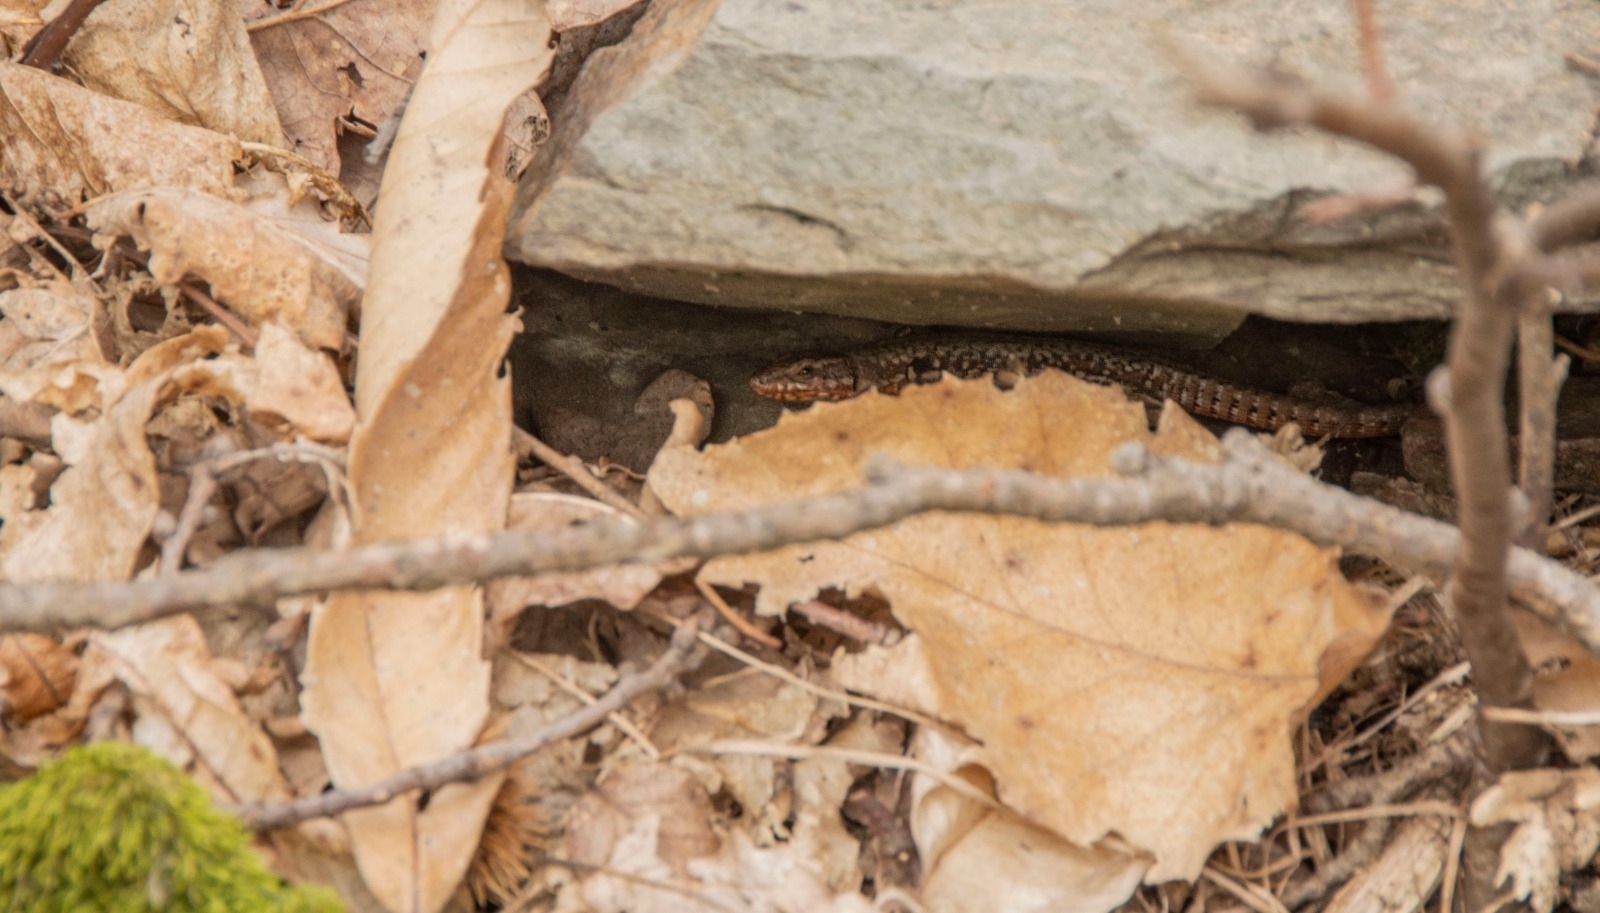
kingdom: Animalia
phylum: Chordata
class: Squamata
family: Lacertidae
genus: Podarcis
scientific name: Podarcis muralis
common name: Common wall lizard
